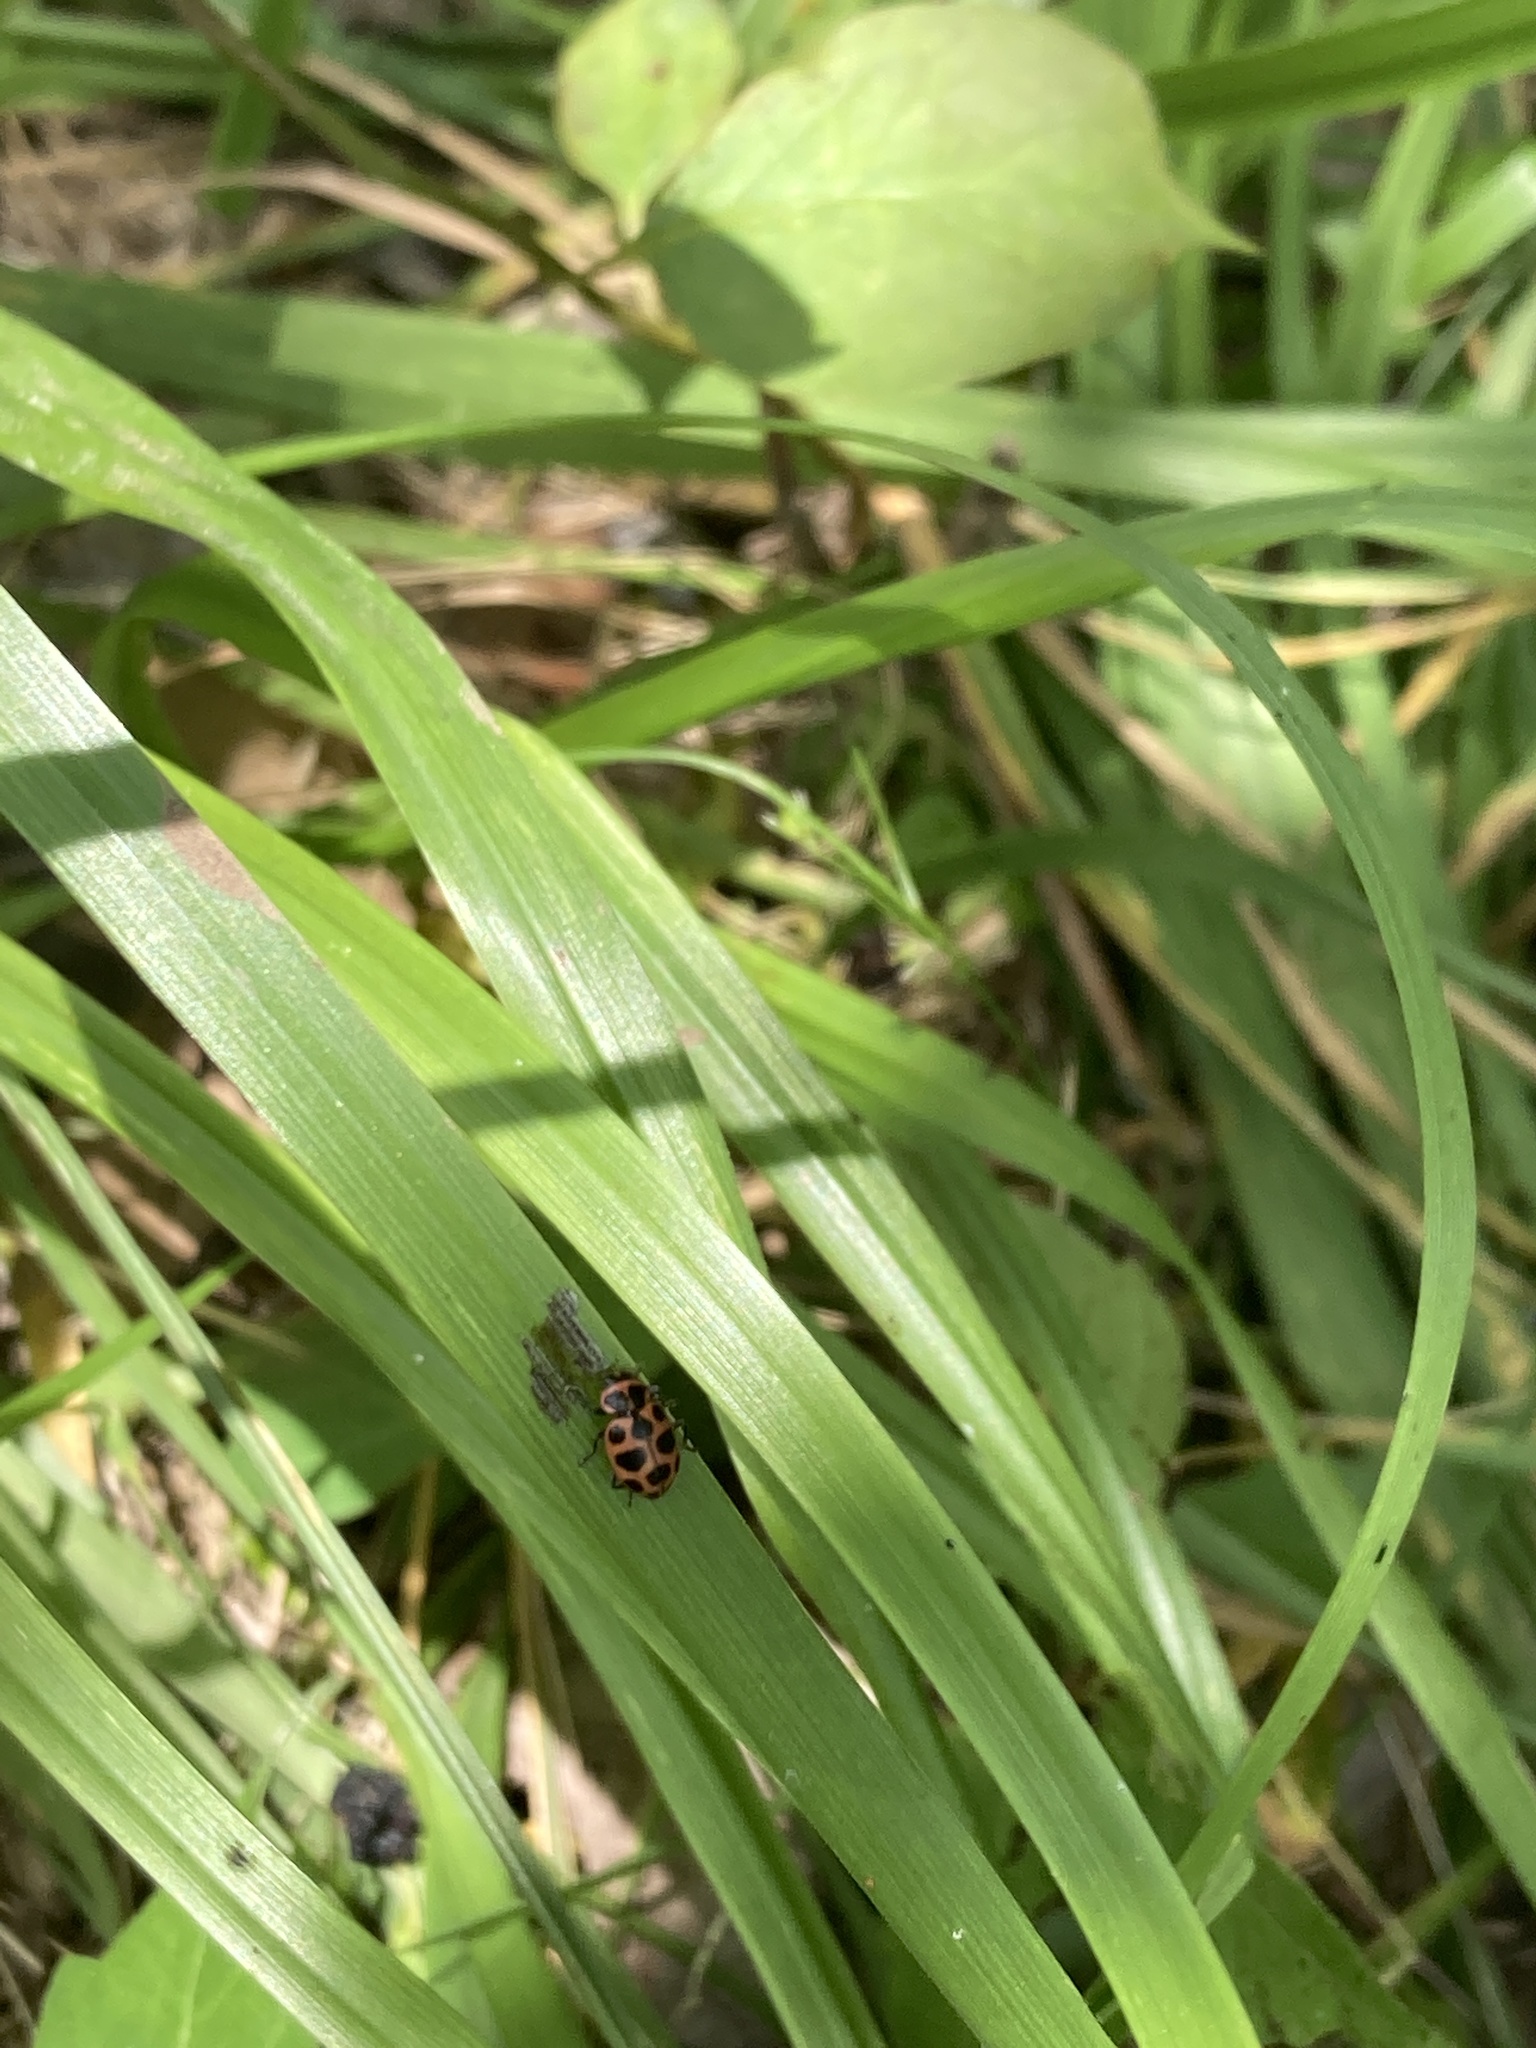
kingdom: Animalia
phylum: Arthropoda
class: Insecta
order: Coleoptera
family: Coccinellidae
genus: Coleomegilla
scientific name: Coleomegilla maculata
